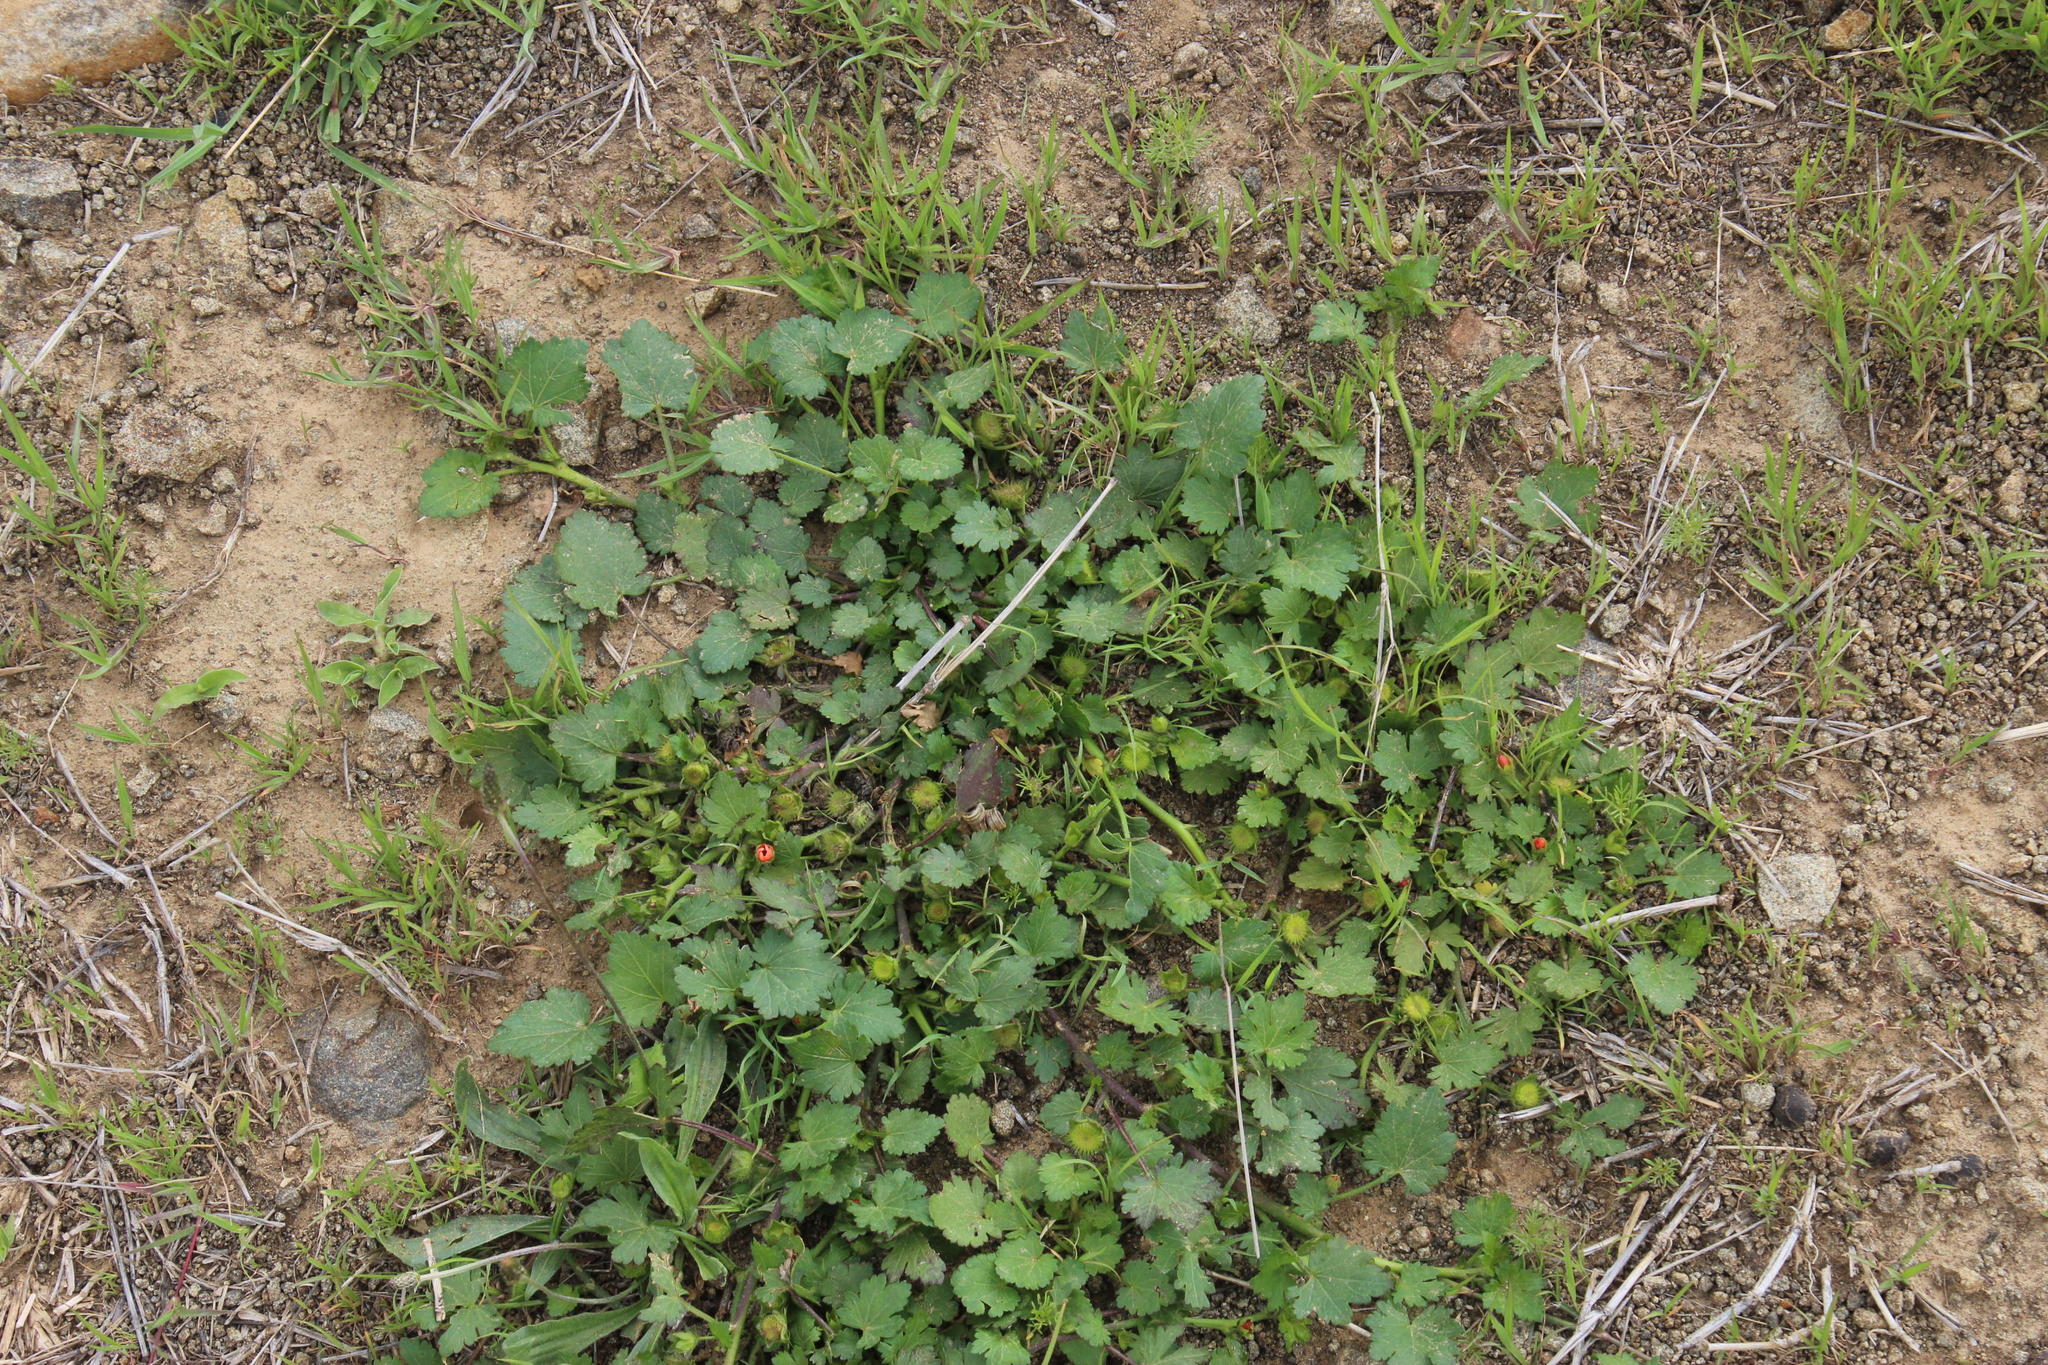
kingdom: Plantae
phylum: Tracheophyta
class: Magnoliopsida
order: Malvales
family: Malvaceae
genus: Modiola
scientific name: Modiola caroliniana
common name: Carolina bristlemallow
